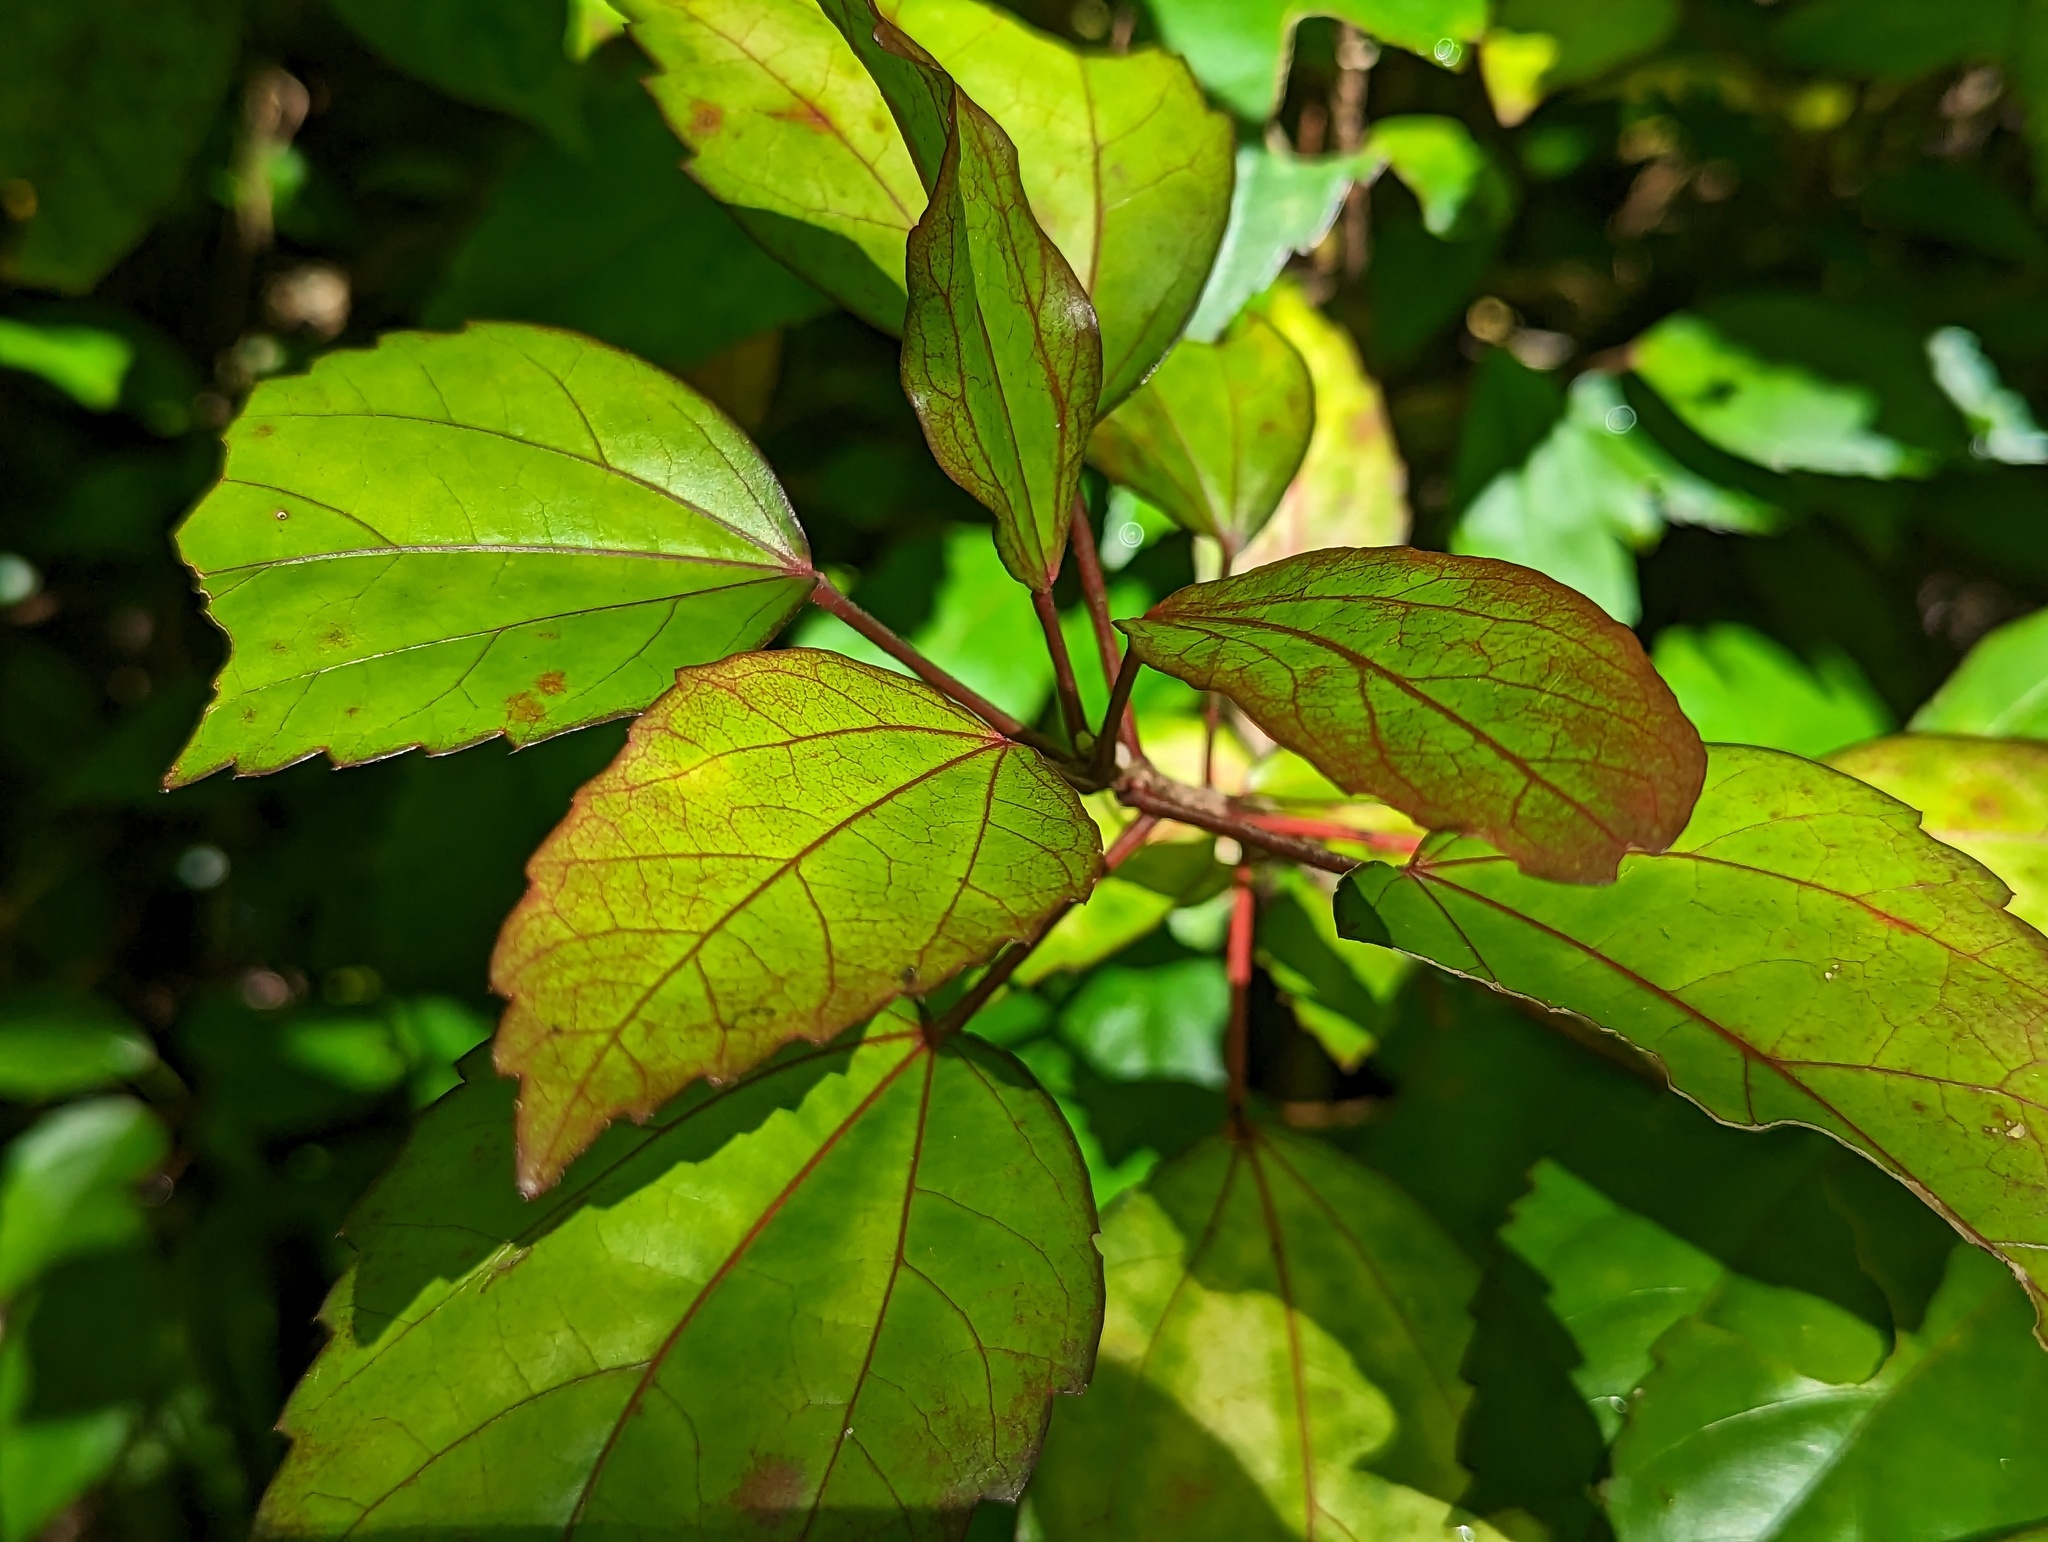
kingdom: Plantae
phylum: Tracheophyta
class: Magnoliopsida
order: Malvales
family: Malvaceae
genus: Hibiscus
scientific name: Hibiscus archeri
